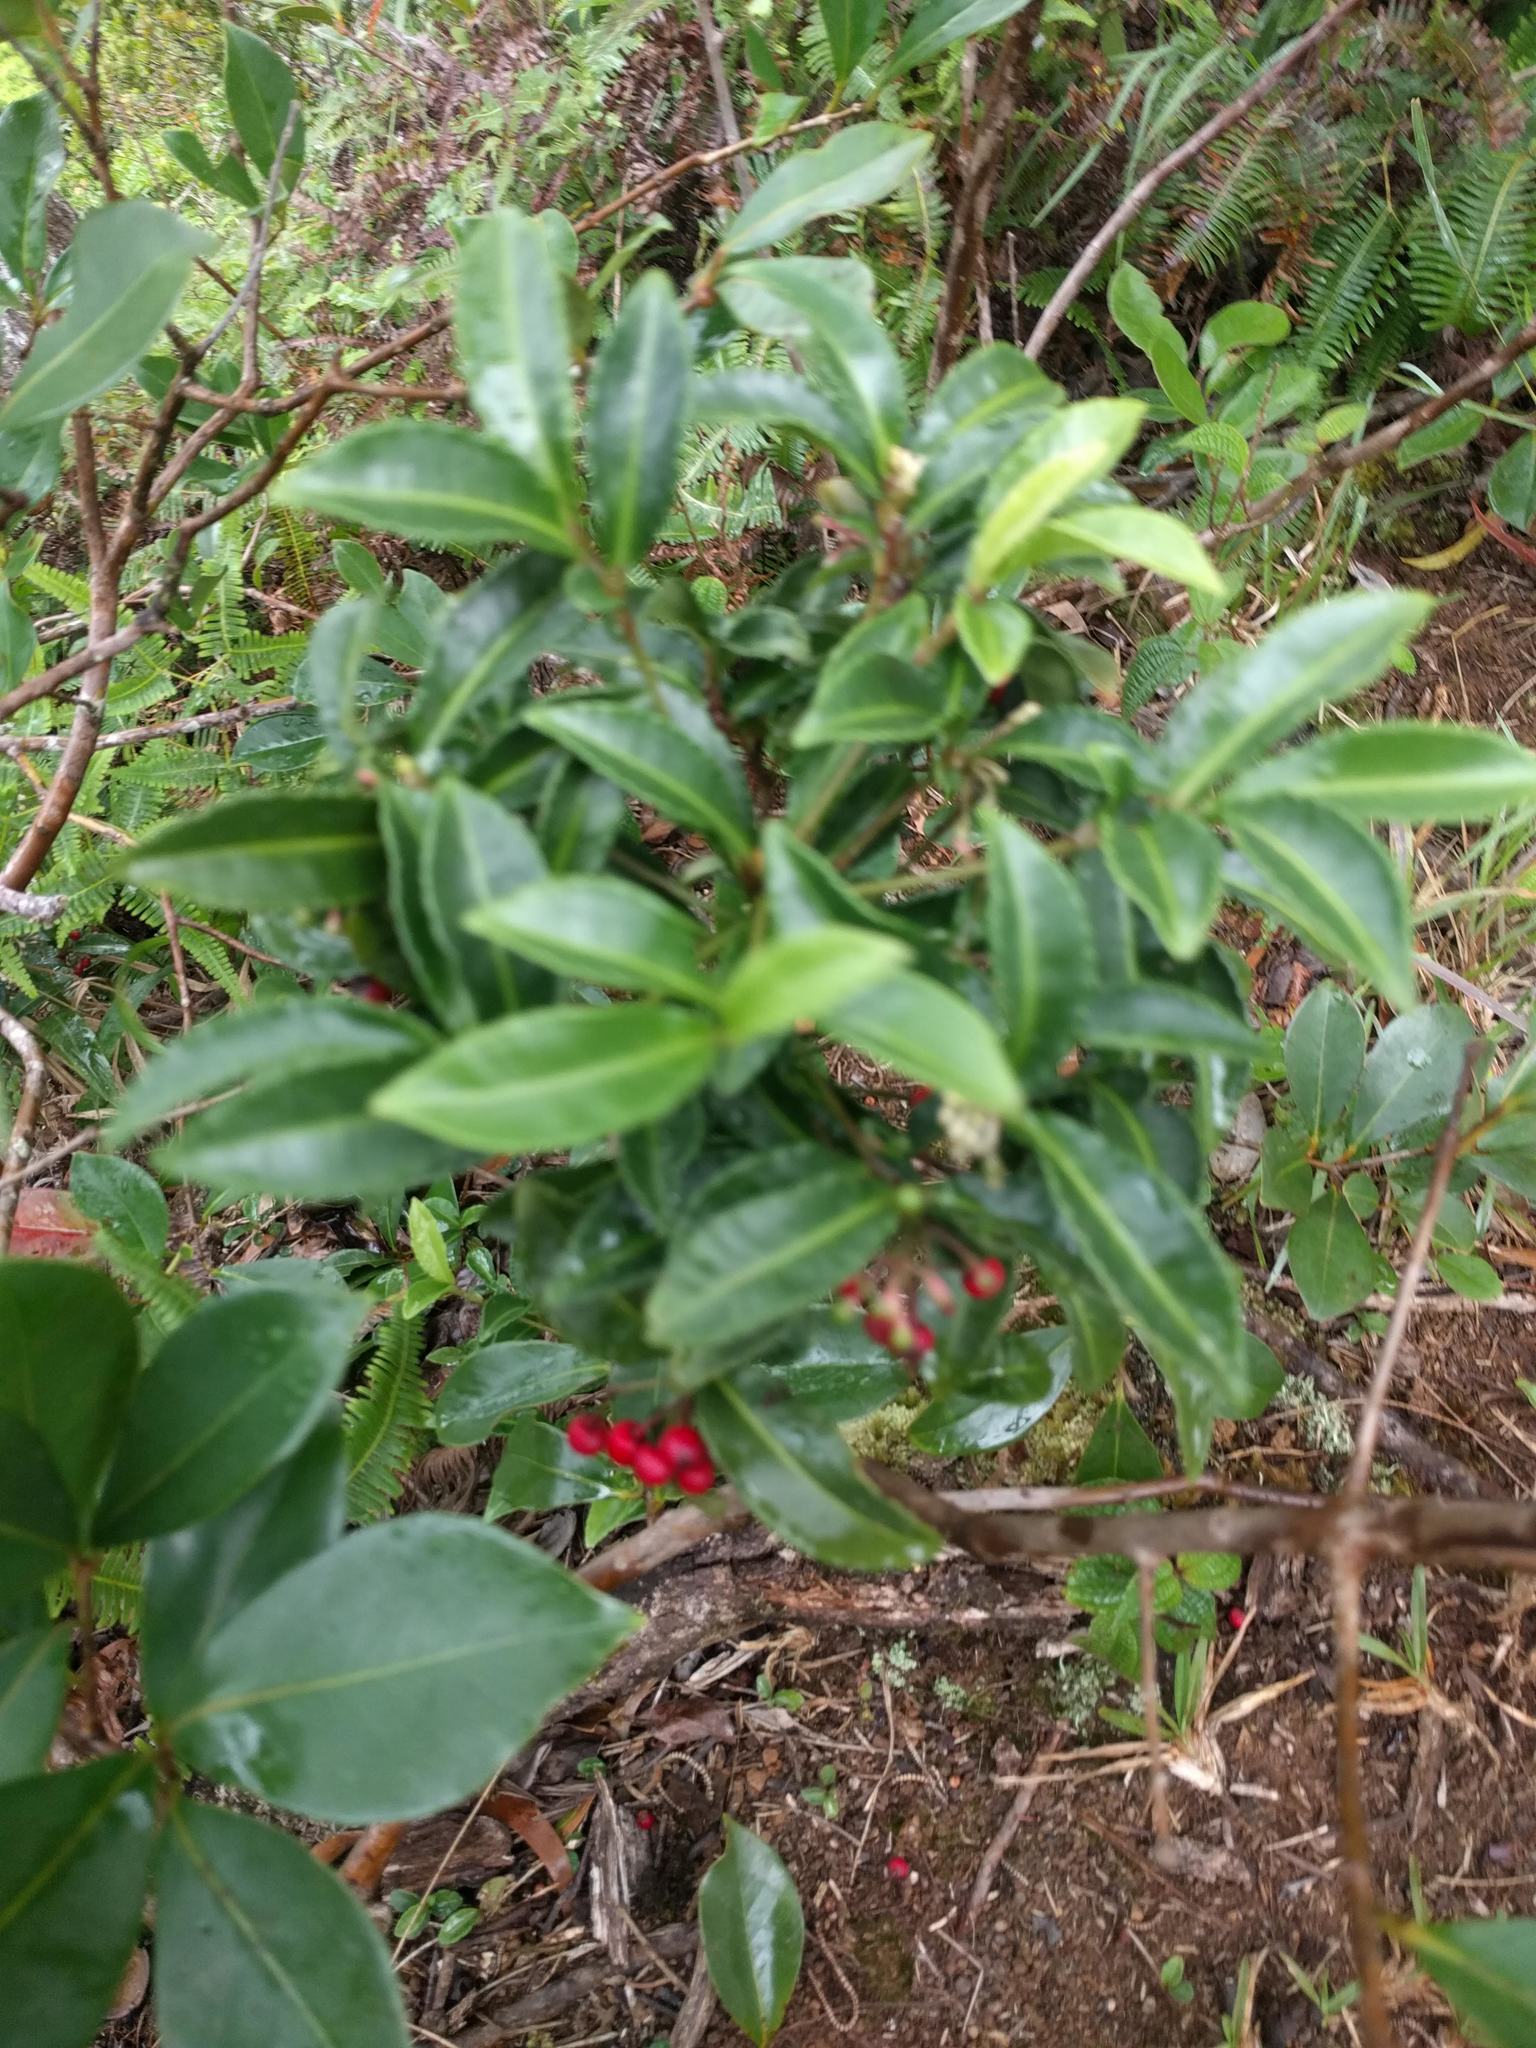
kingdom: Plantae
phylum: Tracheophyta
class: Magnoliopsida
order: Ericales
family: Primulaceae
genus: Ardisia
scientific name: Ardisia crenata
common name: Hen's eyes
